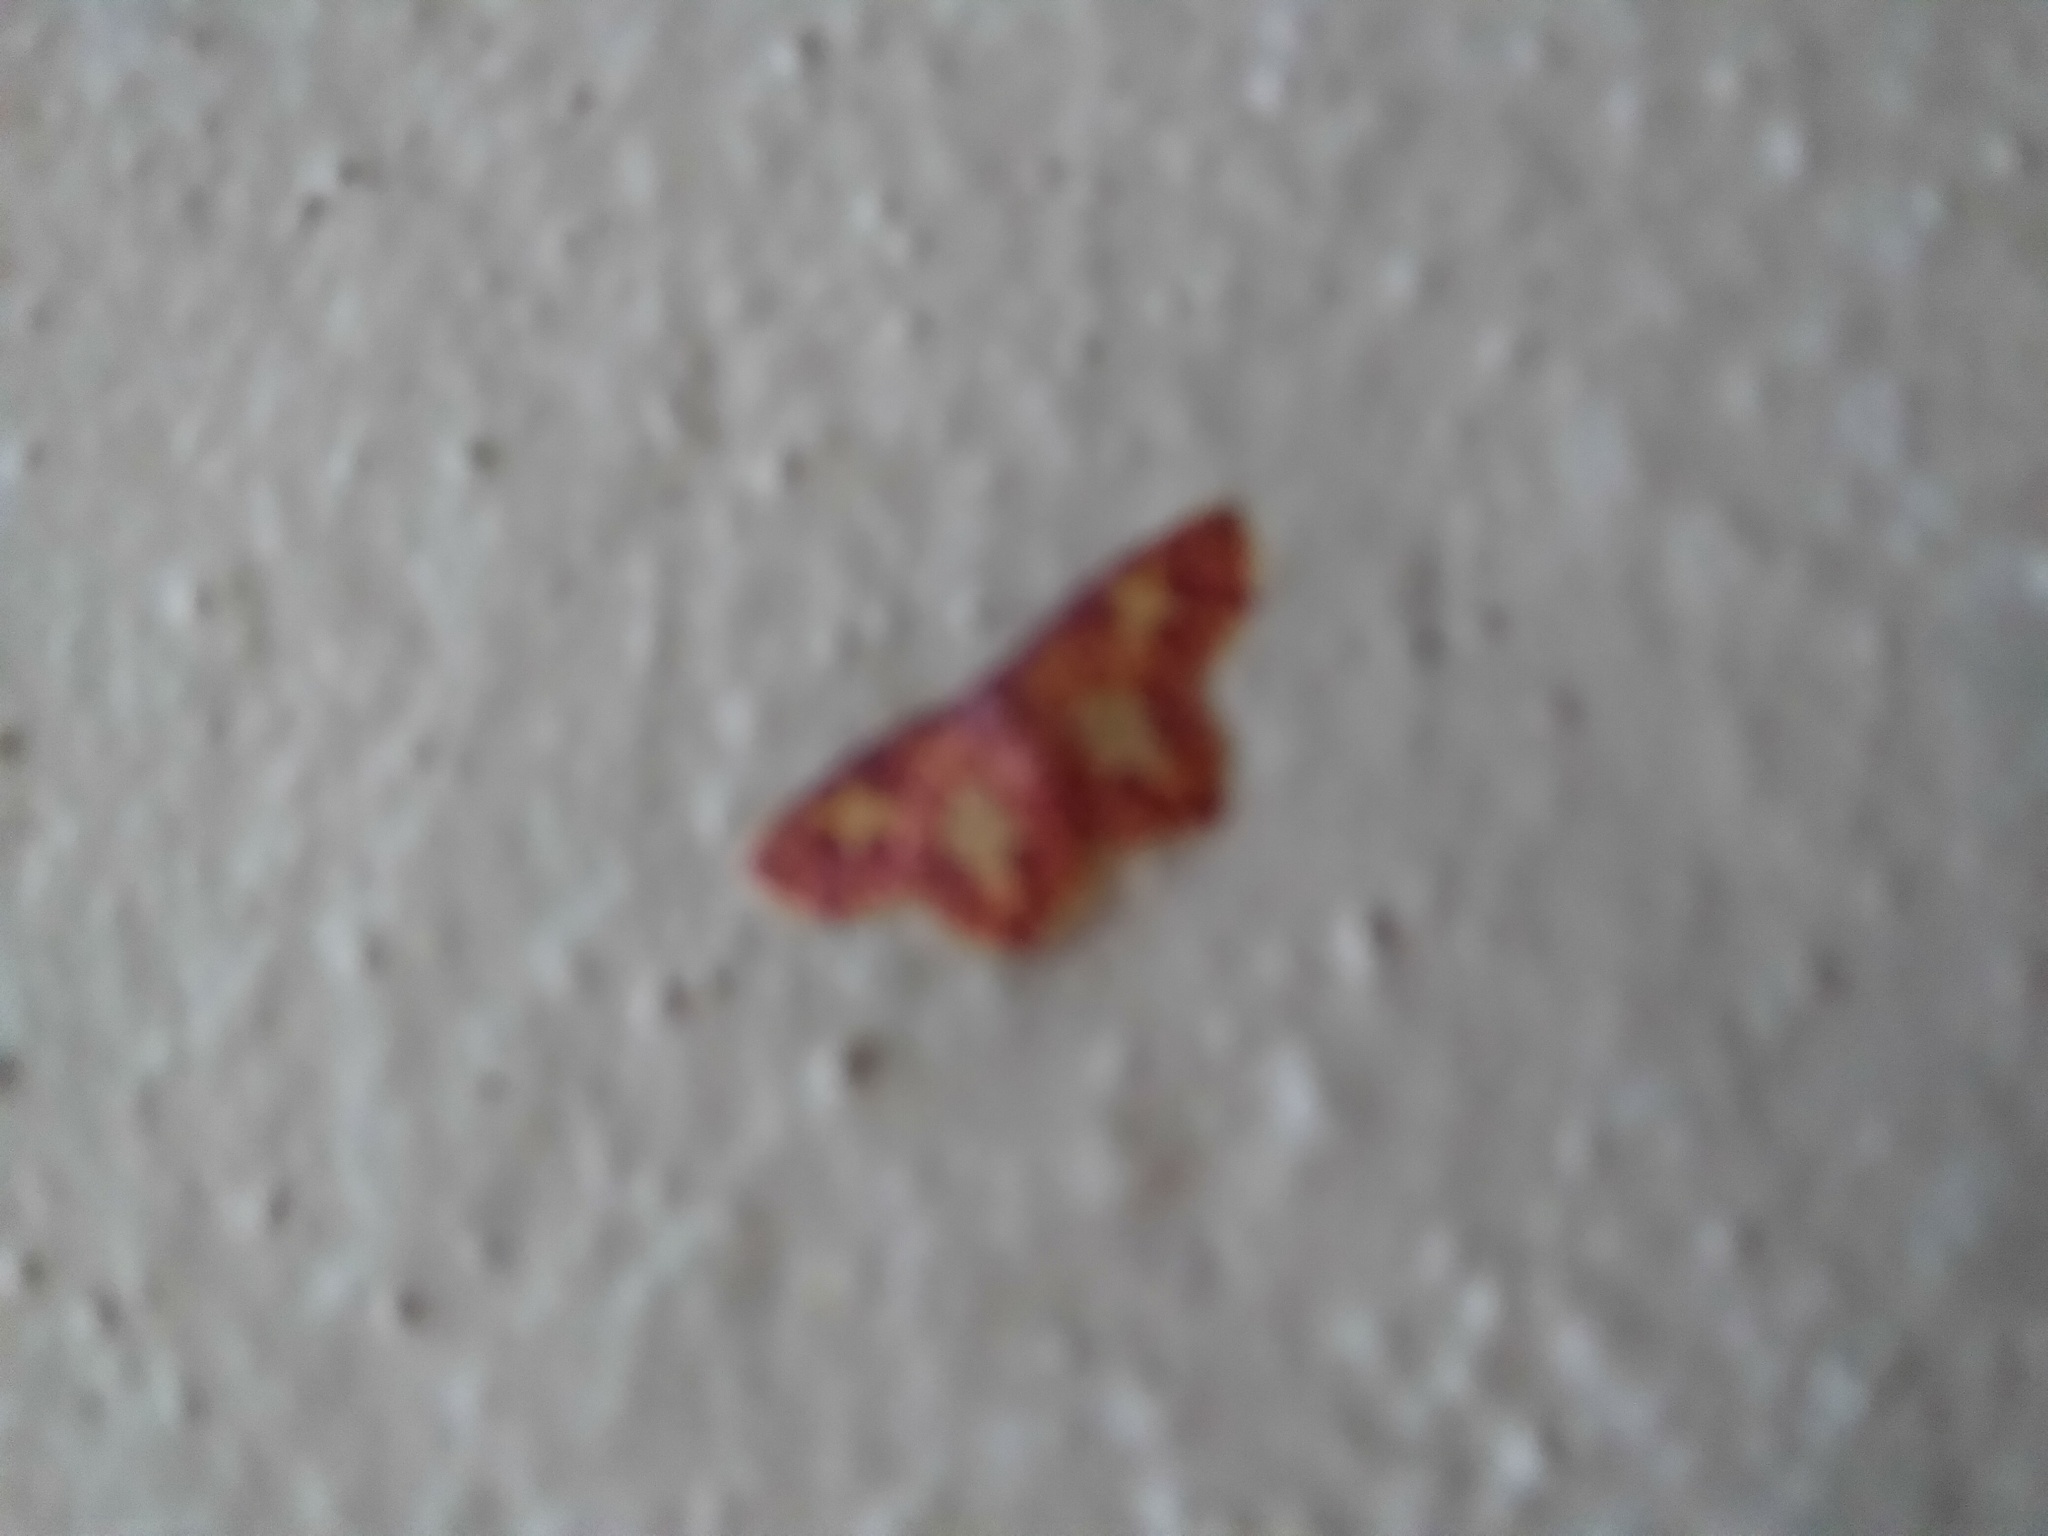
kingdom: Animalia
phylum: Arthropoda
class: Insecta
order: Lepidoptera
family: Geometridae
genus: Chrysocraspeda
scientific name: Chrysocraspeda faganaria
